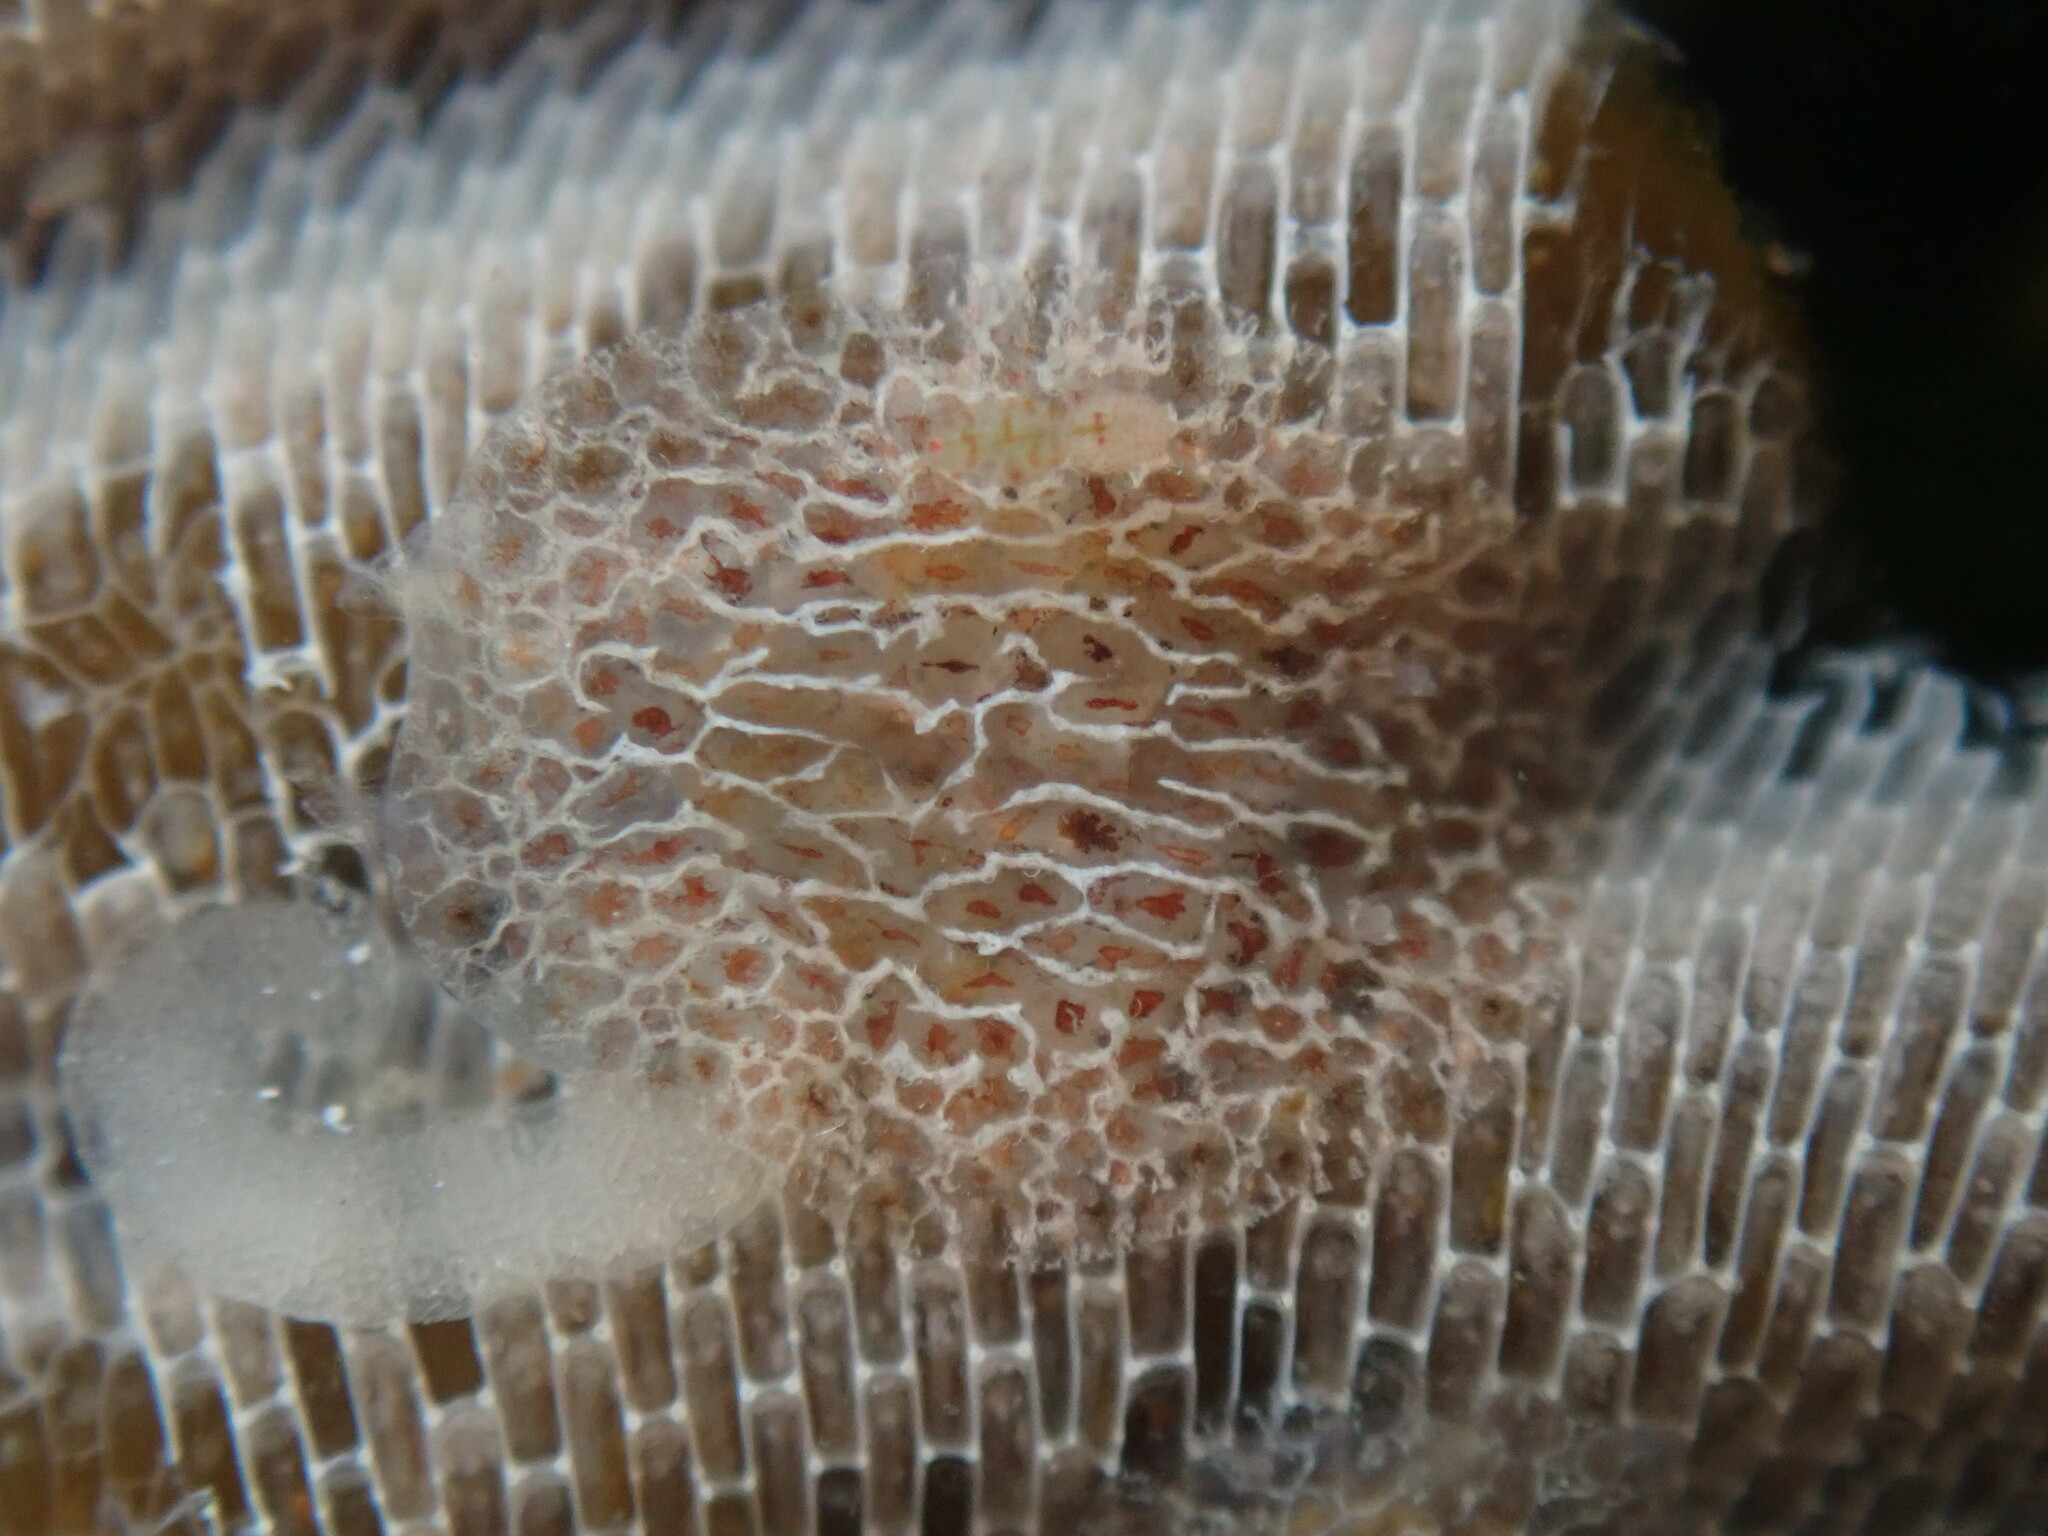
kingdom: Animalia
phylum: Mollusca
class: Gastropoda
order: Nudibranchia
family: Corambidae
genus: Corambe
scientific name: Corambe steinbergae
